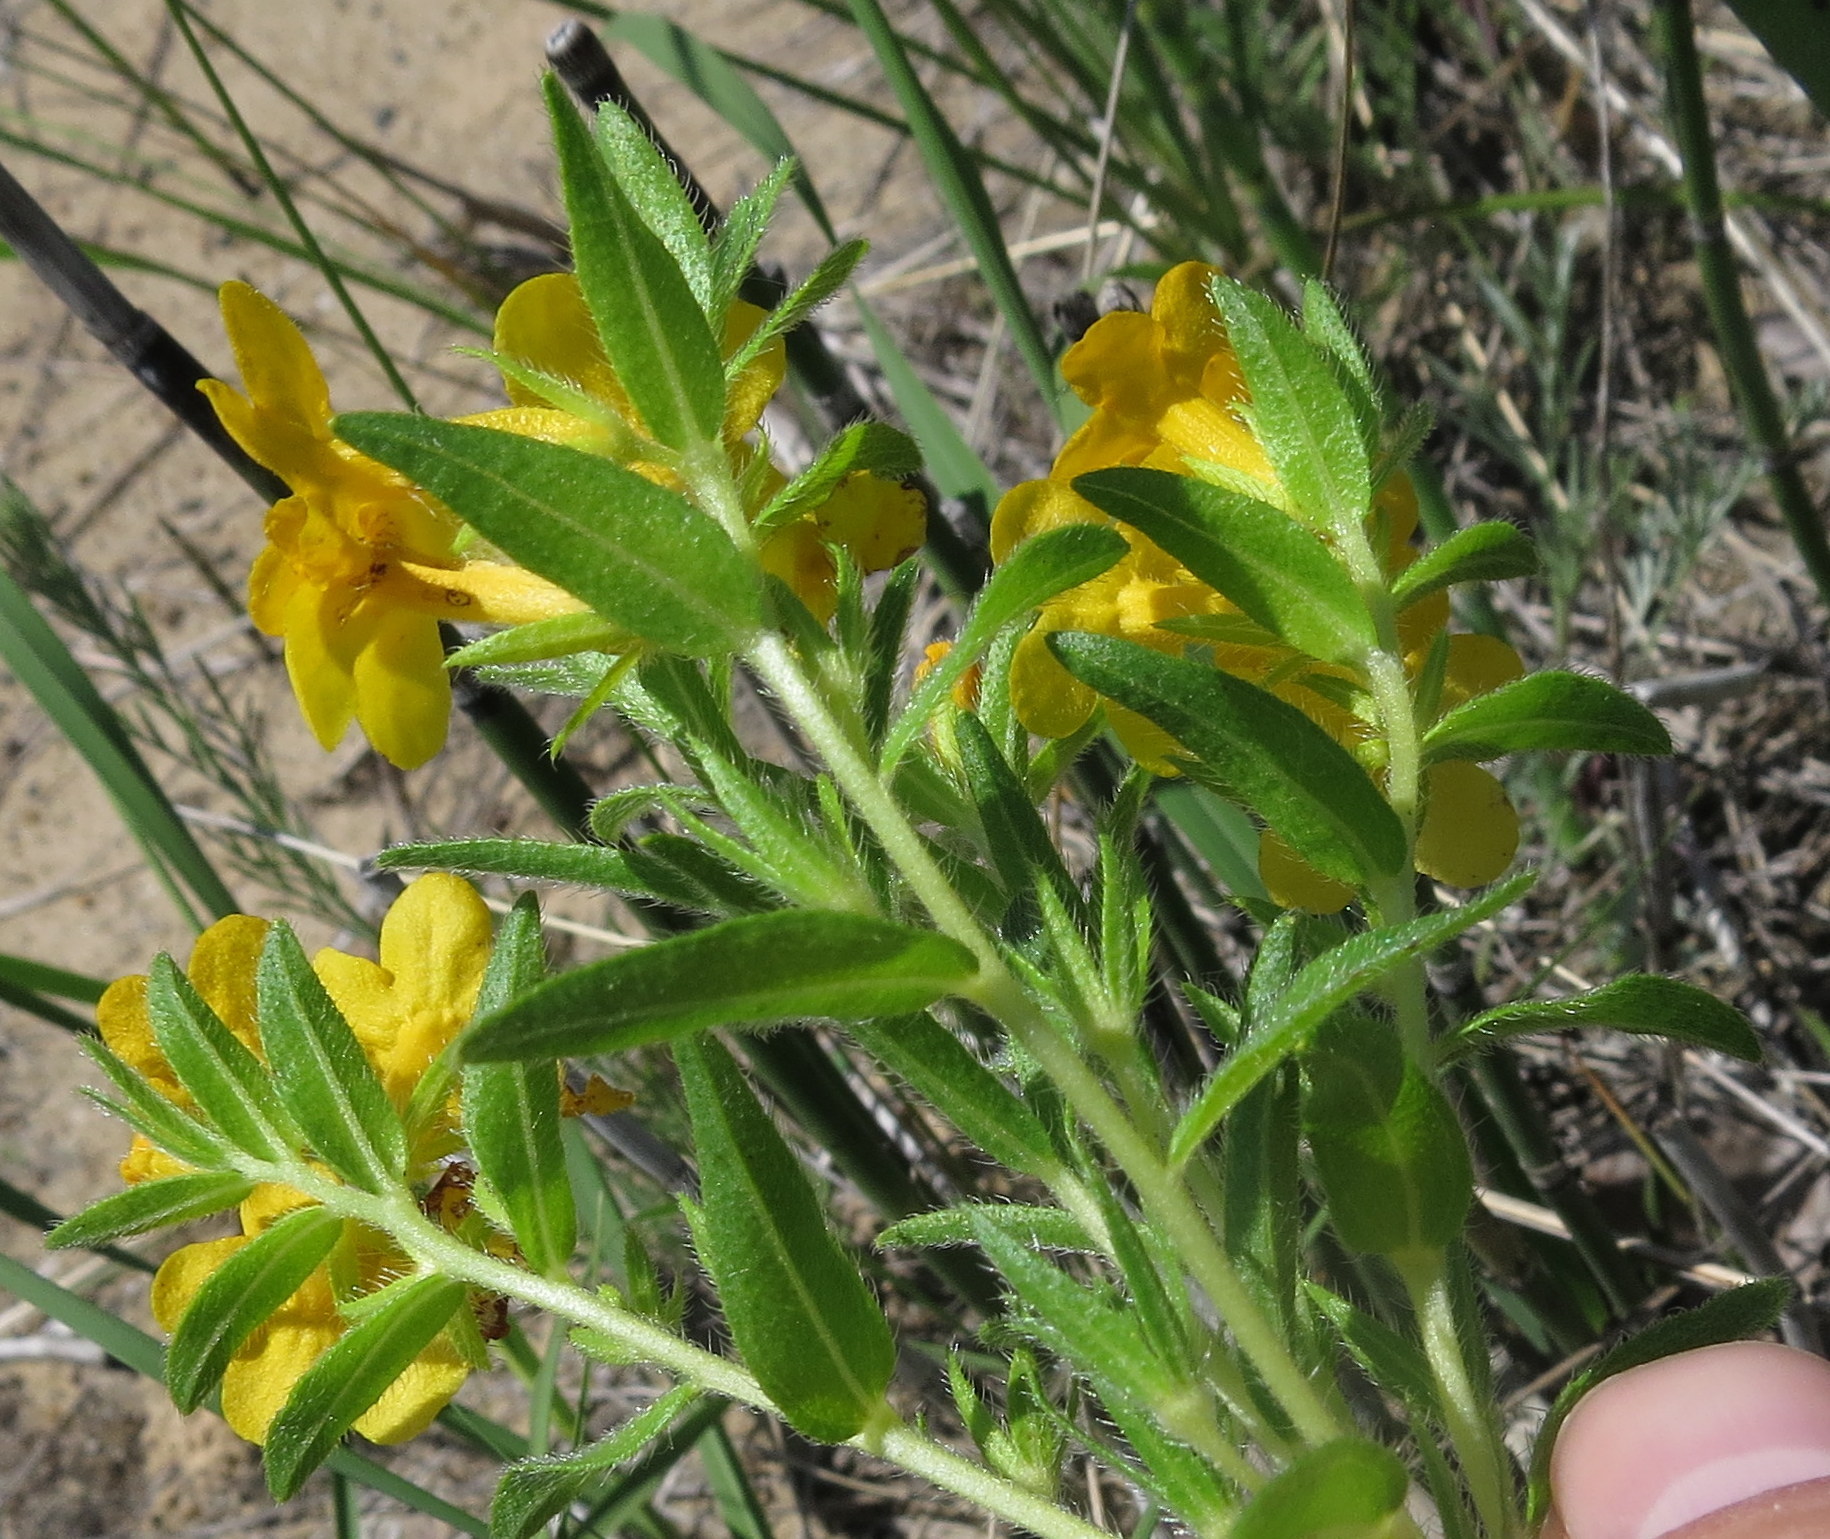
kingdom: Plantae
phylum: Tracheophyta
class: Magnoliopsida
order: Boraginales
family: Boraginaceae
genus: Lithospermum
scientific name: Lithospermum caroliniense
